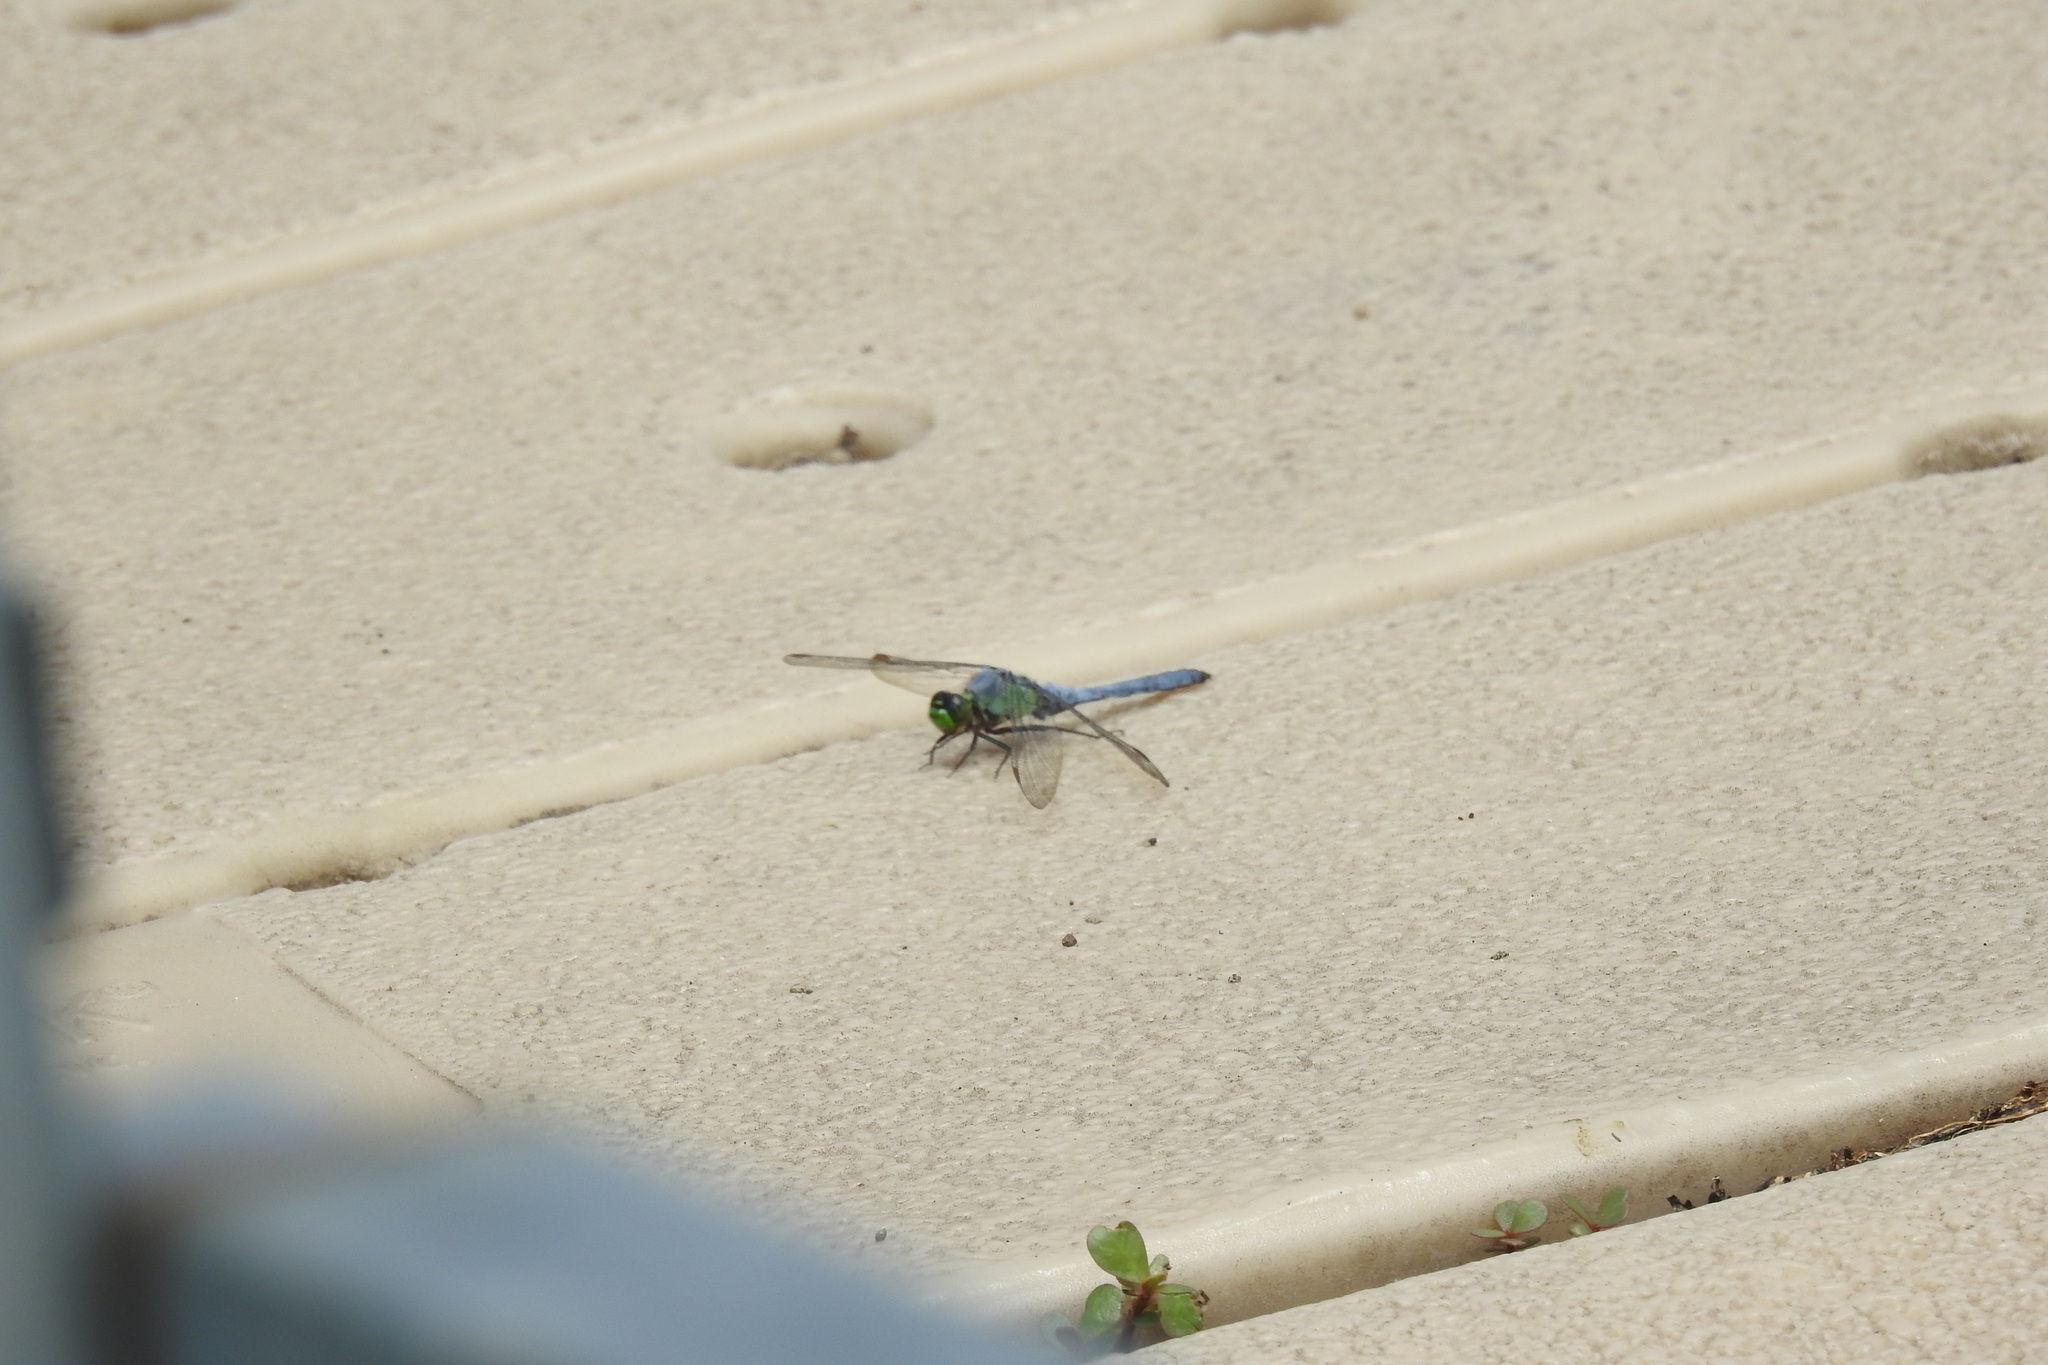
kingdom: Animalia
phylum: Arthropoda
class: Insecta
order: Odonata
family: Libellulidae
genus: Erythemis
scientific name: Erythemis simplicicollis
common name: Eastern pondhawk
